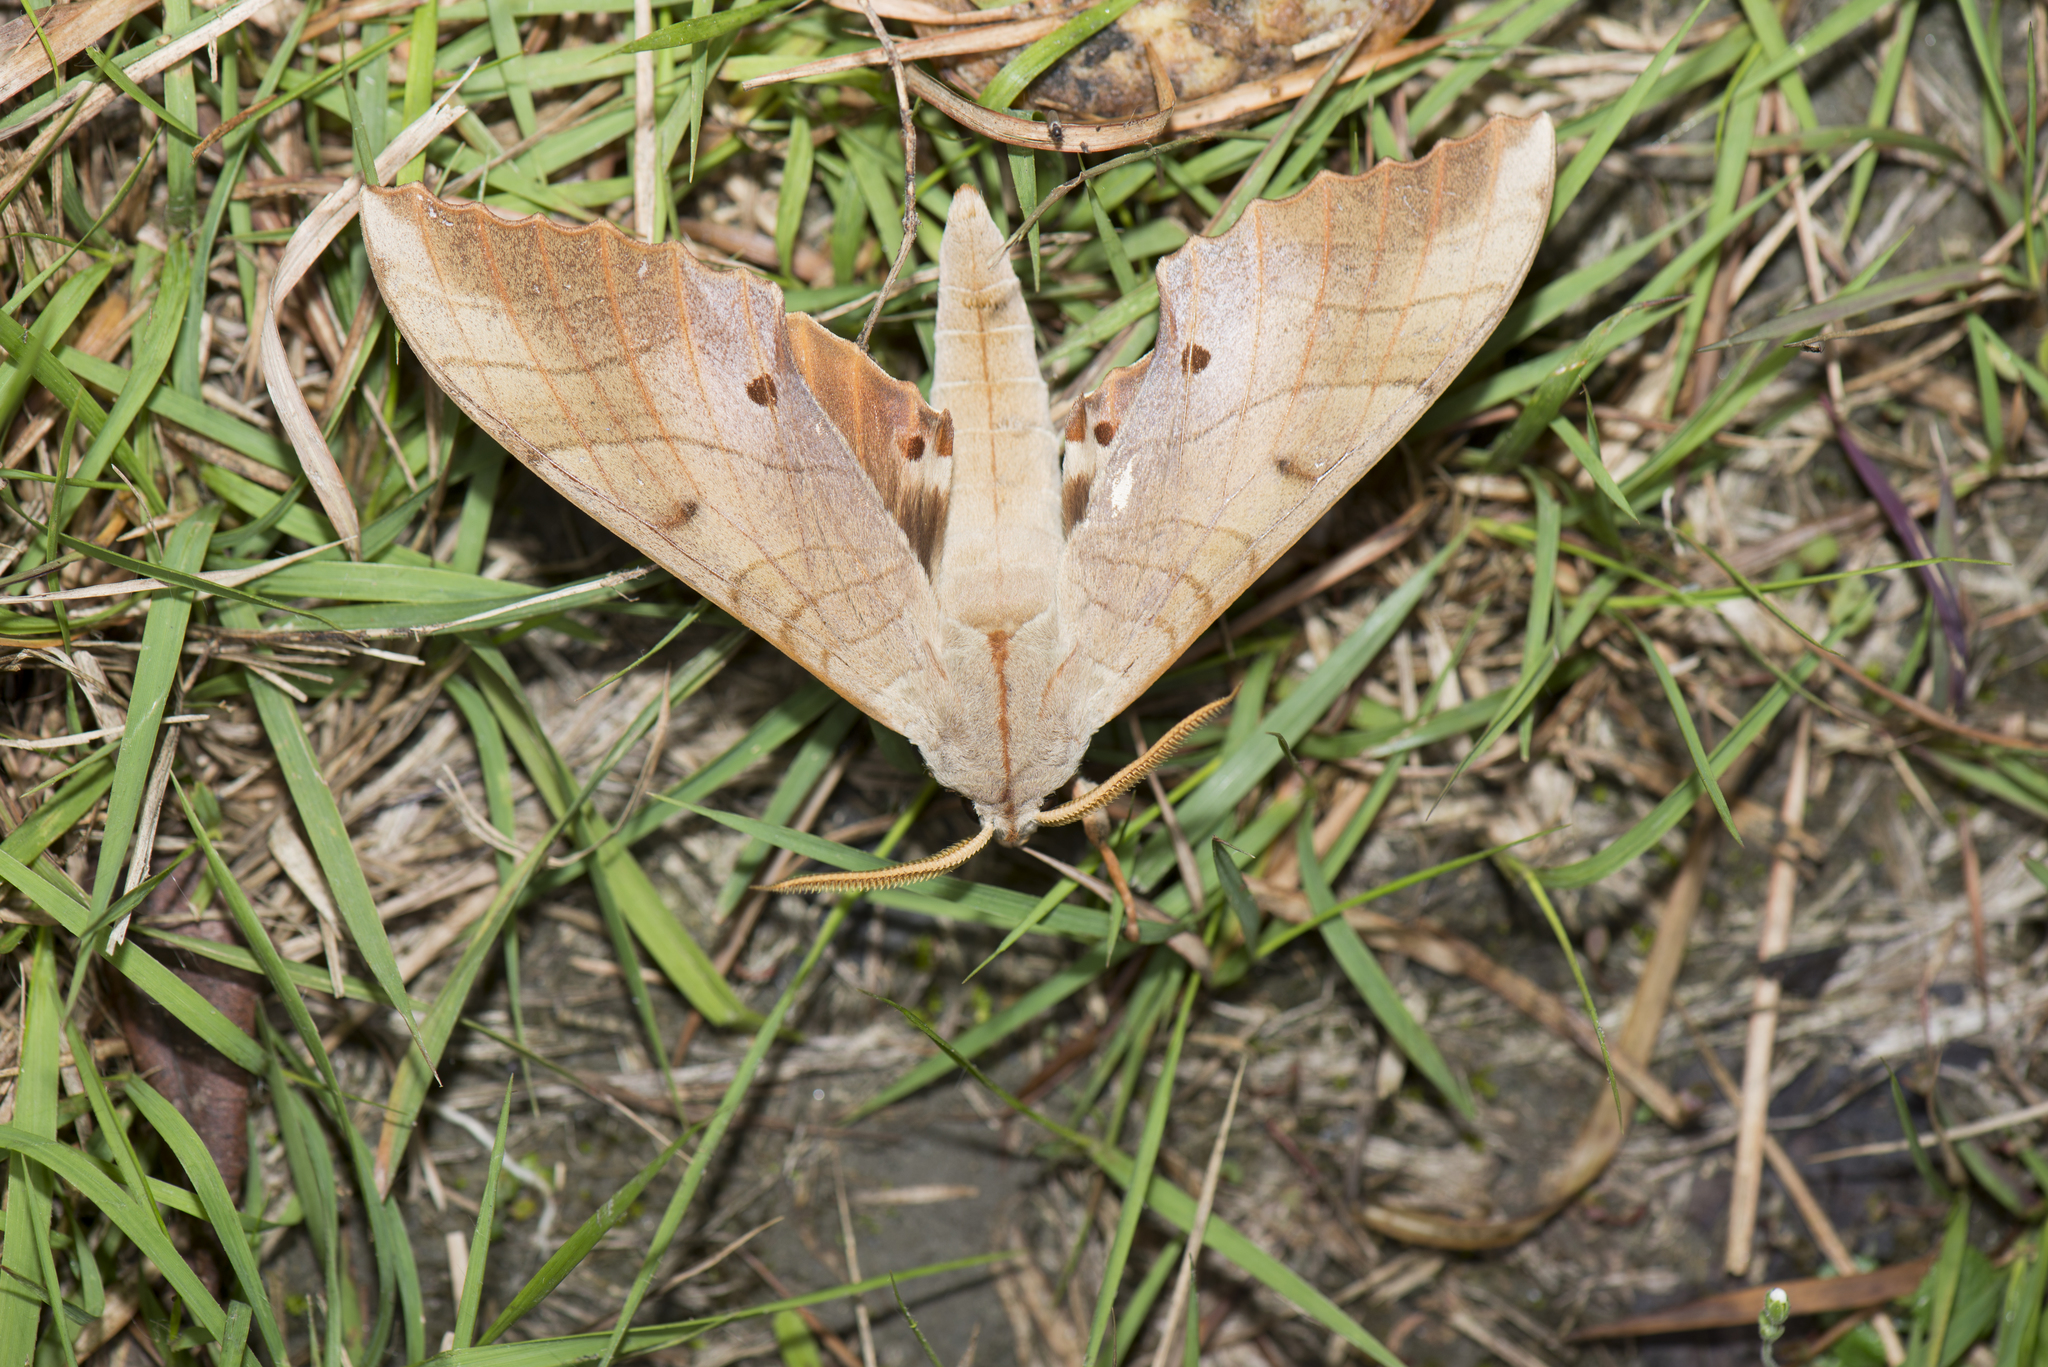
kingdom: Animalia
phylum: Arthropoda
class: Insecta
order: Lepidoptera
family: Sphingidae
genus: Marumba
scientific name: Marumba sperchius
